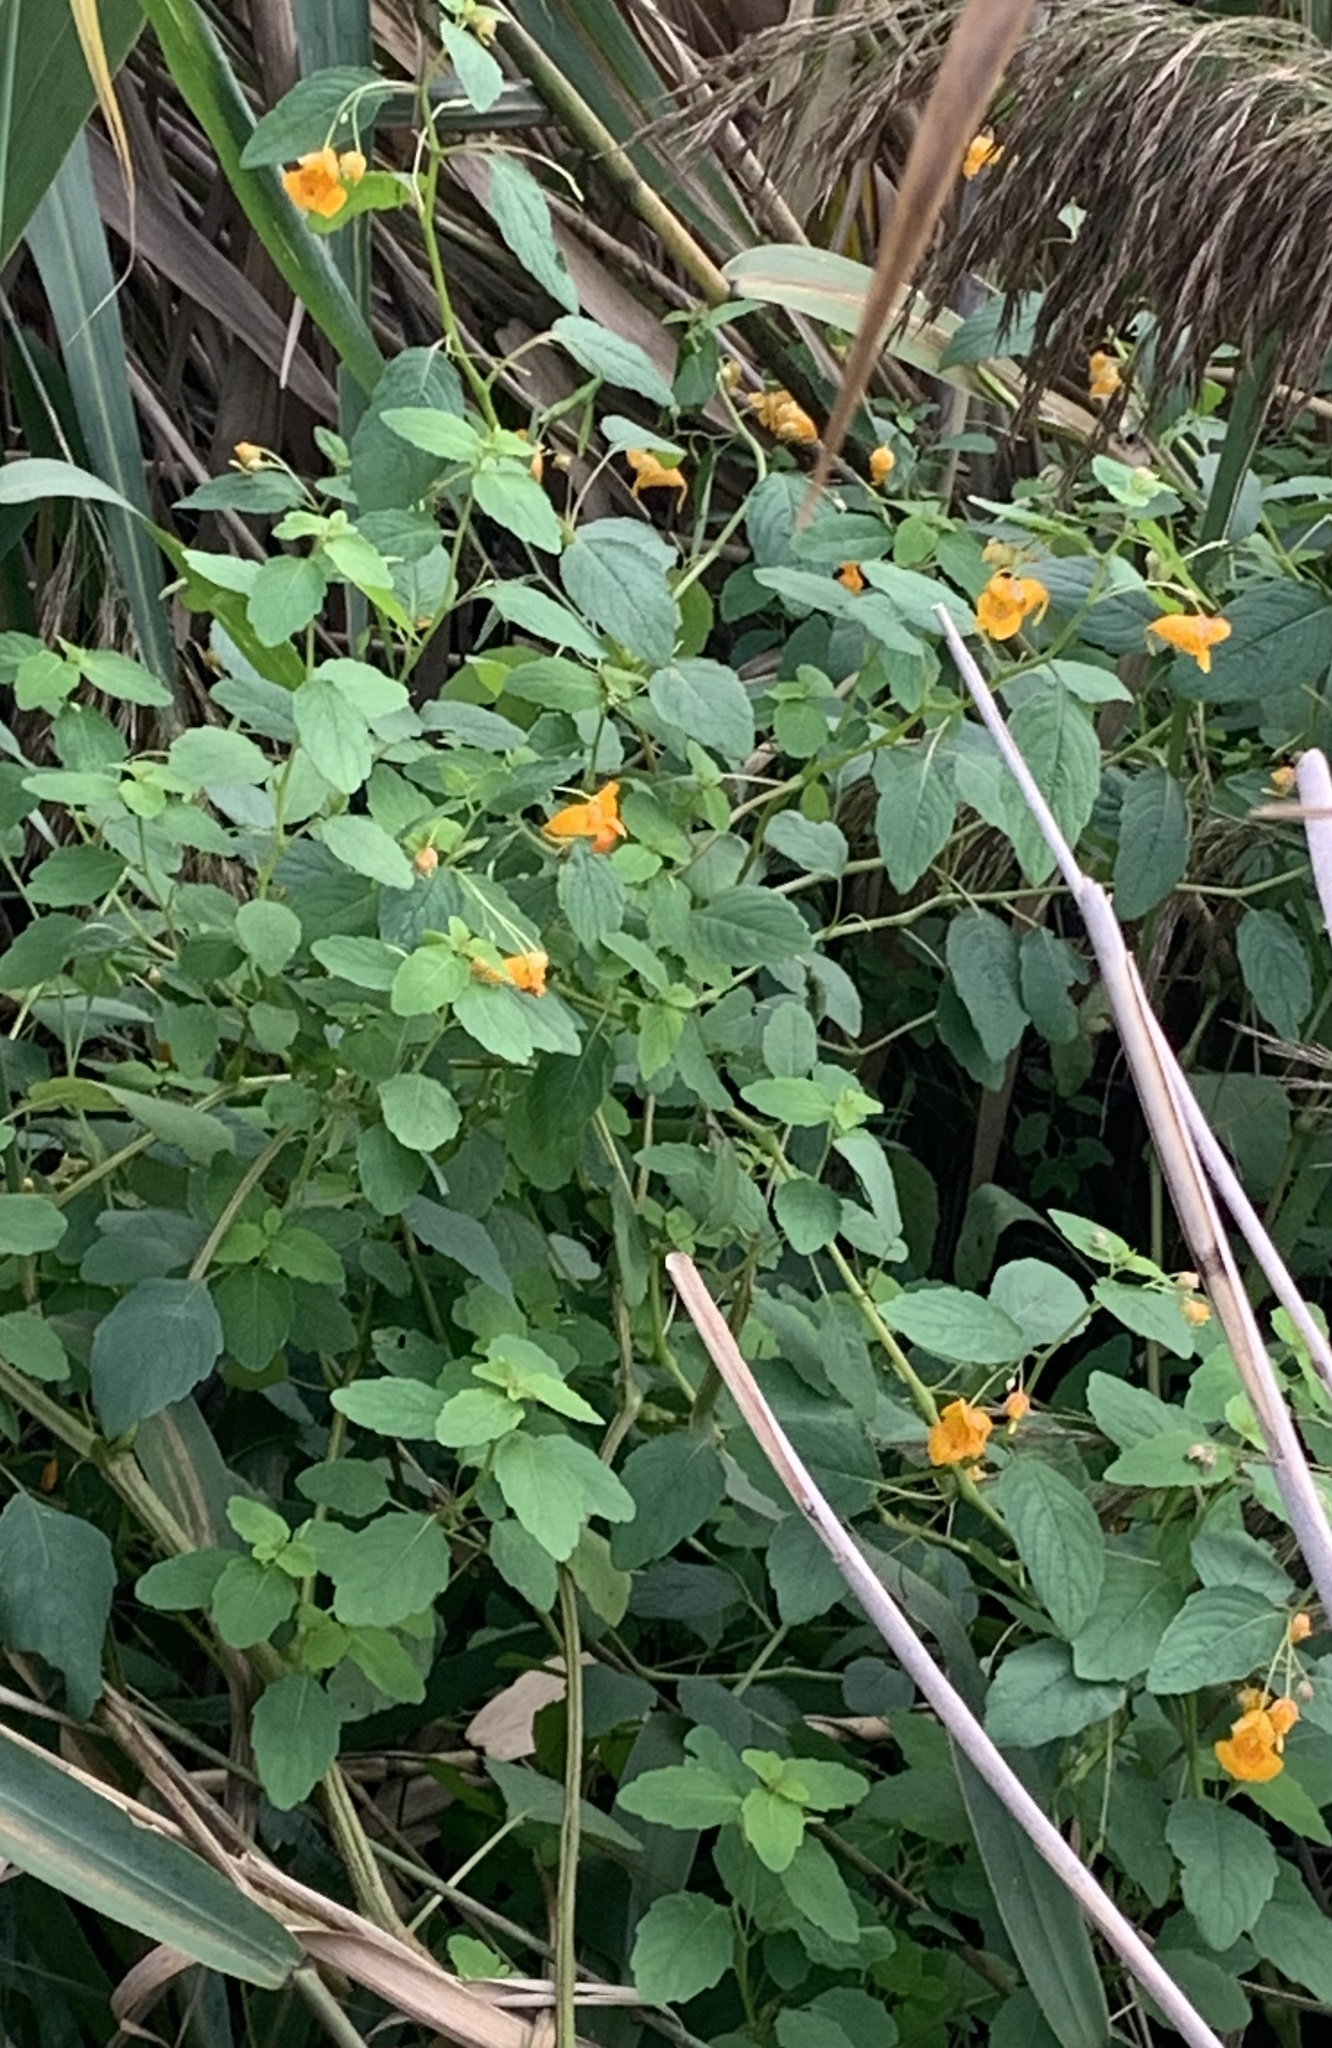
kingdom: Plantae
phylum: Tracheophyta
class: Magnoliopsida
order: Ericales
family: Balsaminaceae
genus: Impatiens
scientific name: Impatiens capensis
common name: Orange balsam
